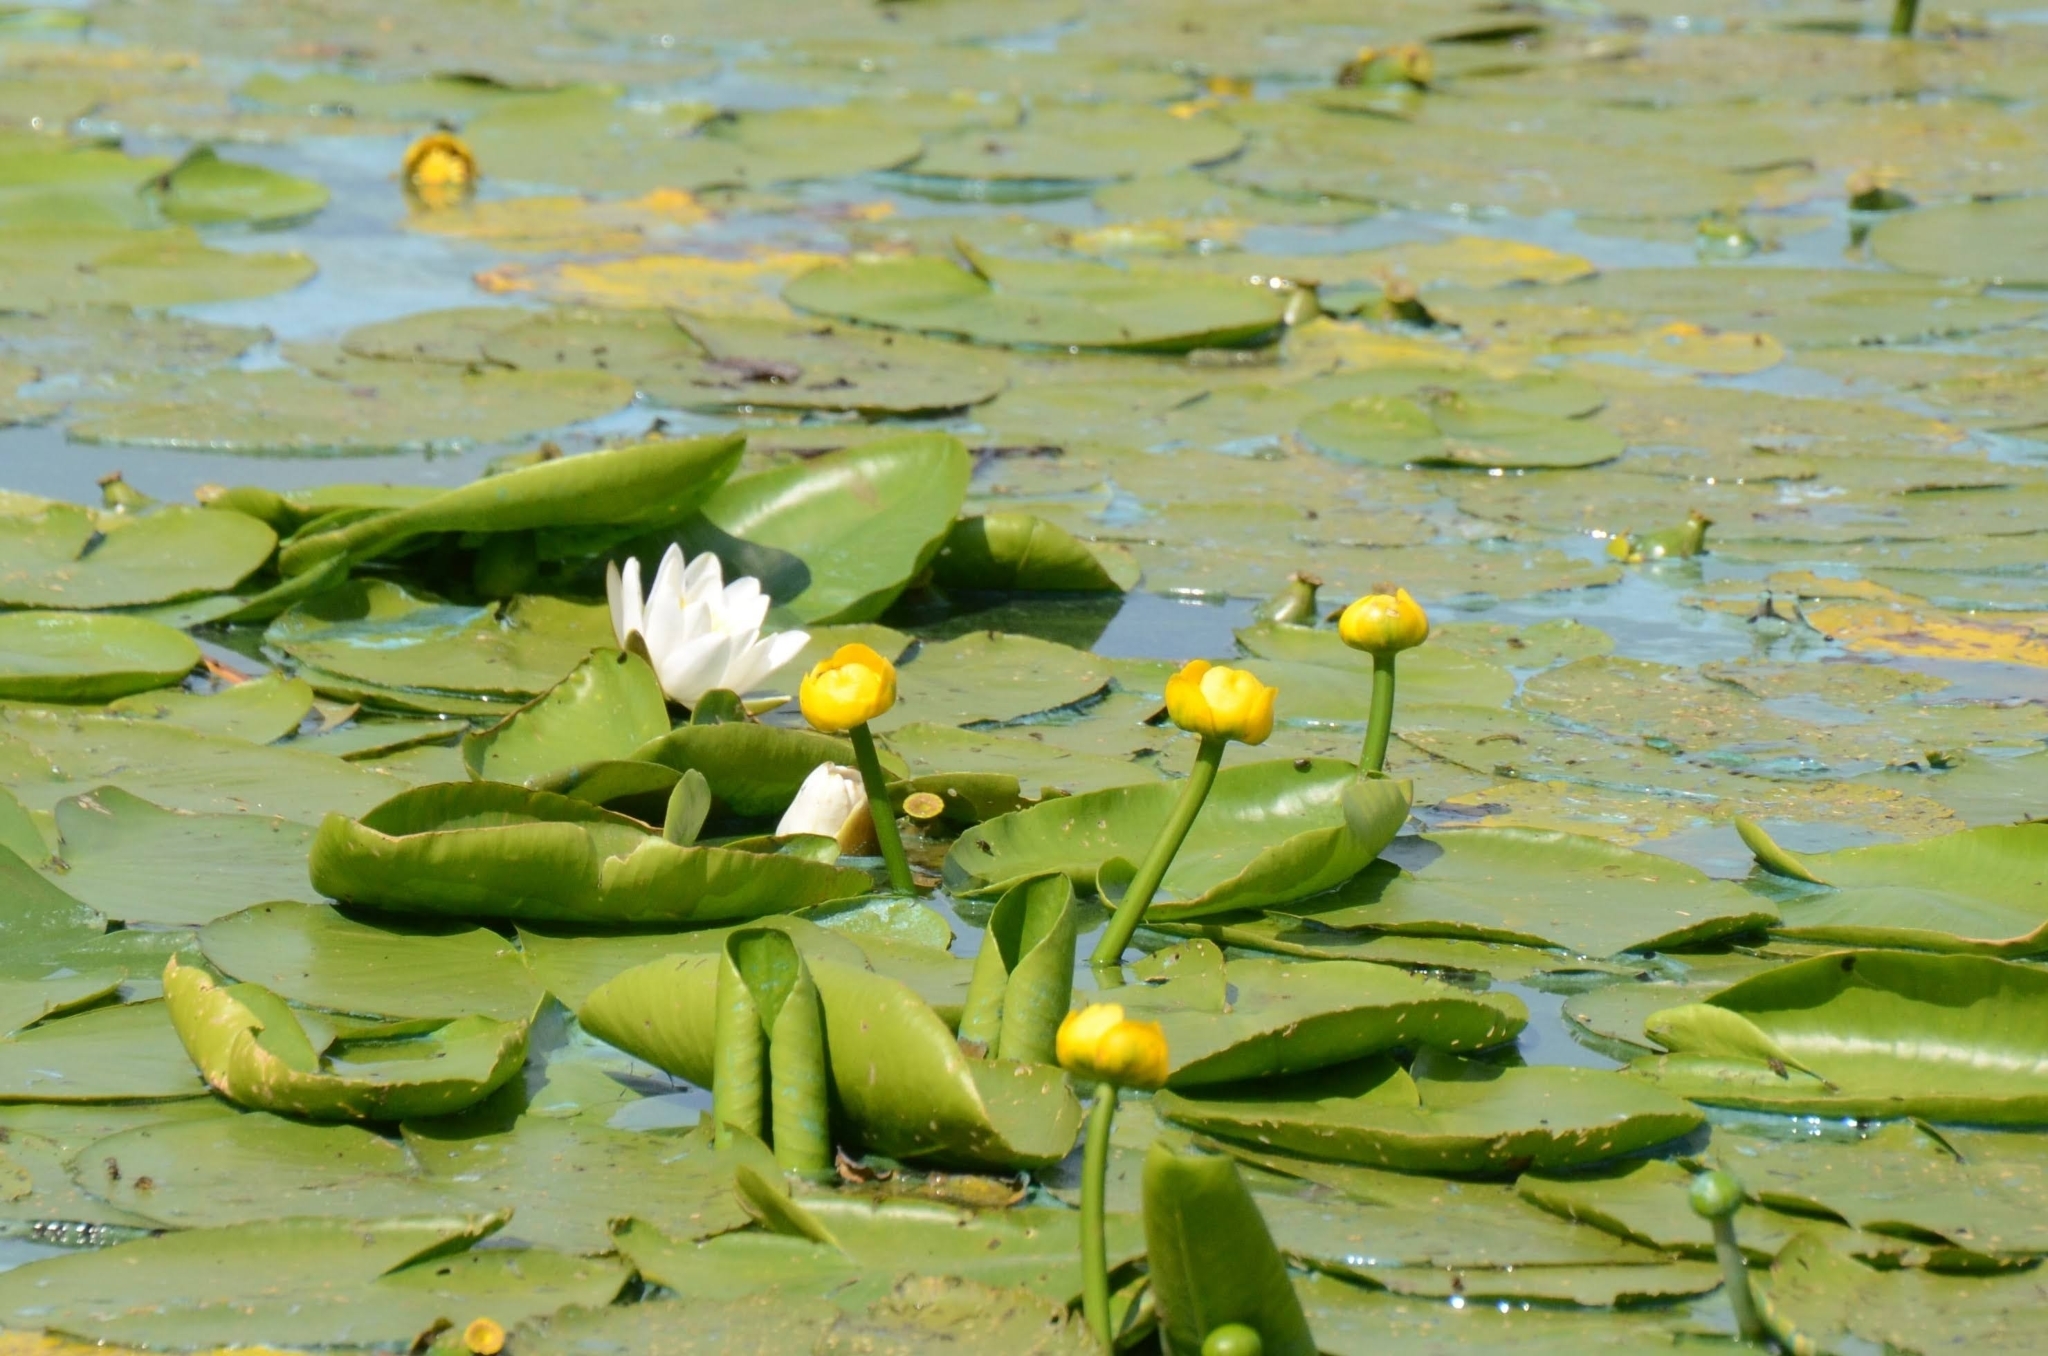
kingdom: Plantae
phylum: Tracheophyta
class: Magnoliopsida
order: Nymphaeales
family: Nymphaeaceae
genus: Nuphar
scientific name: Nuphar lutea
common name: Yellow water-lily
